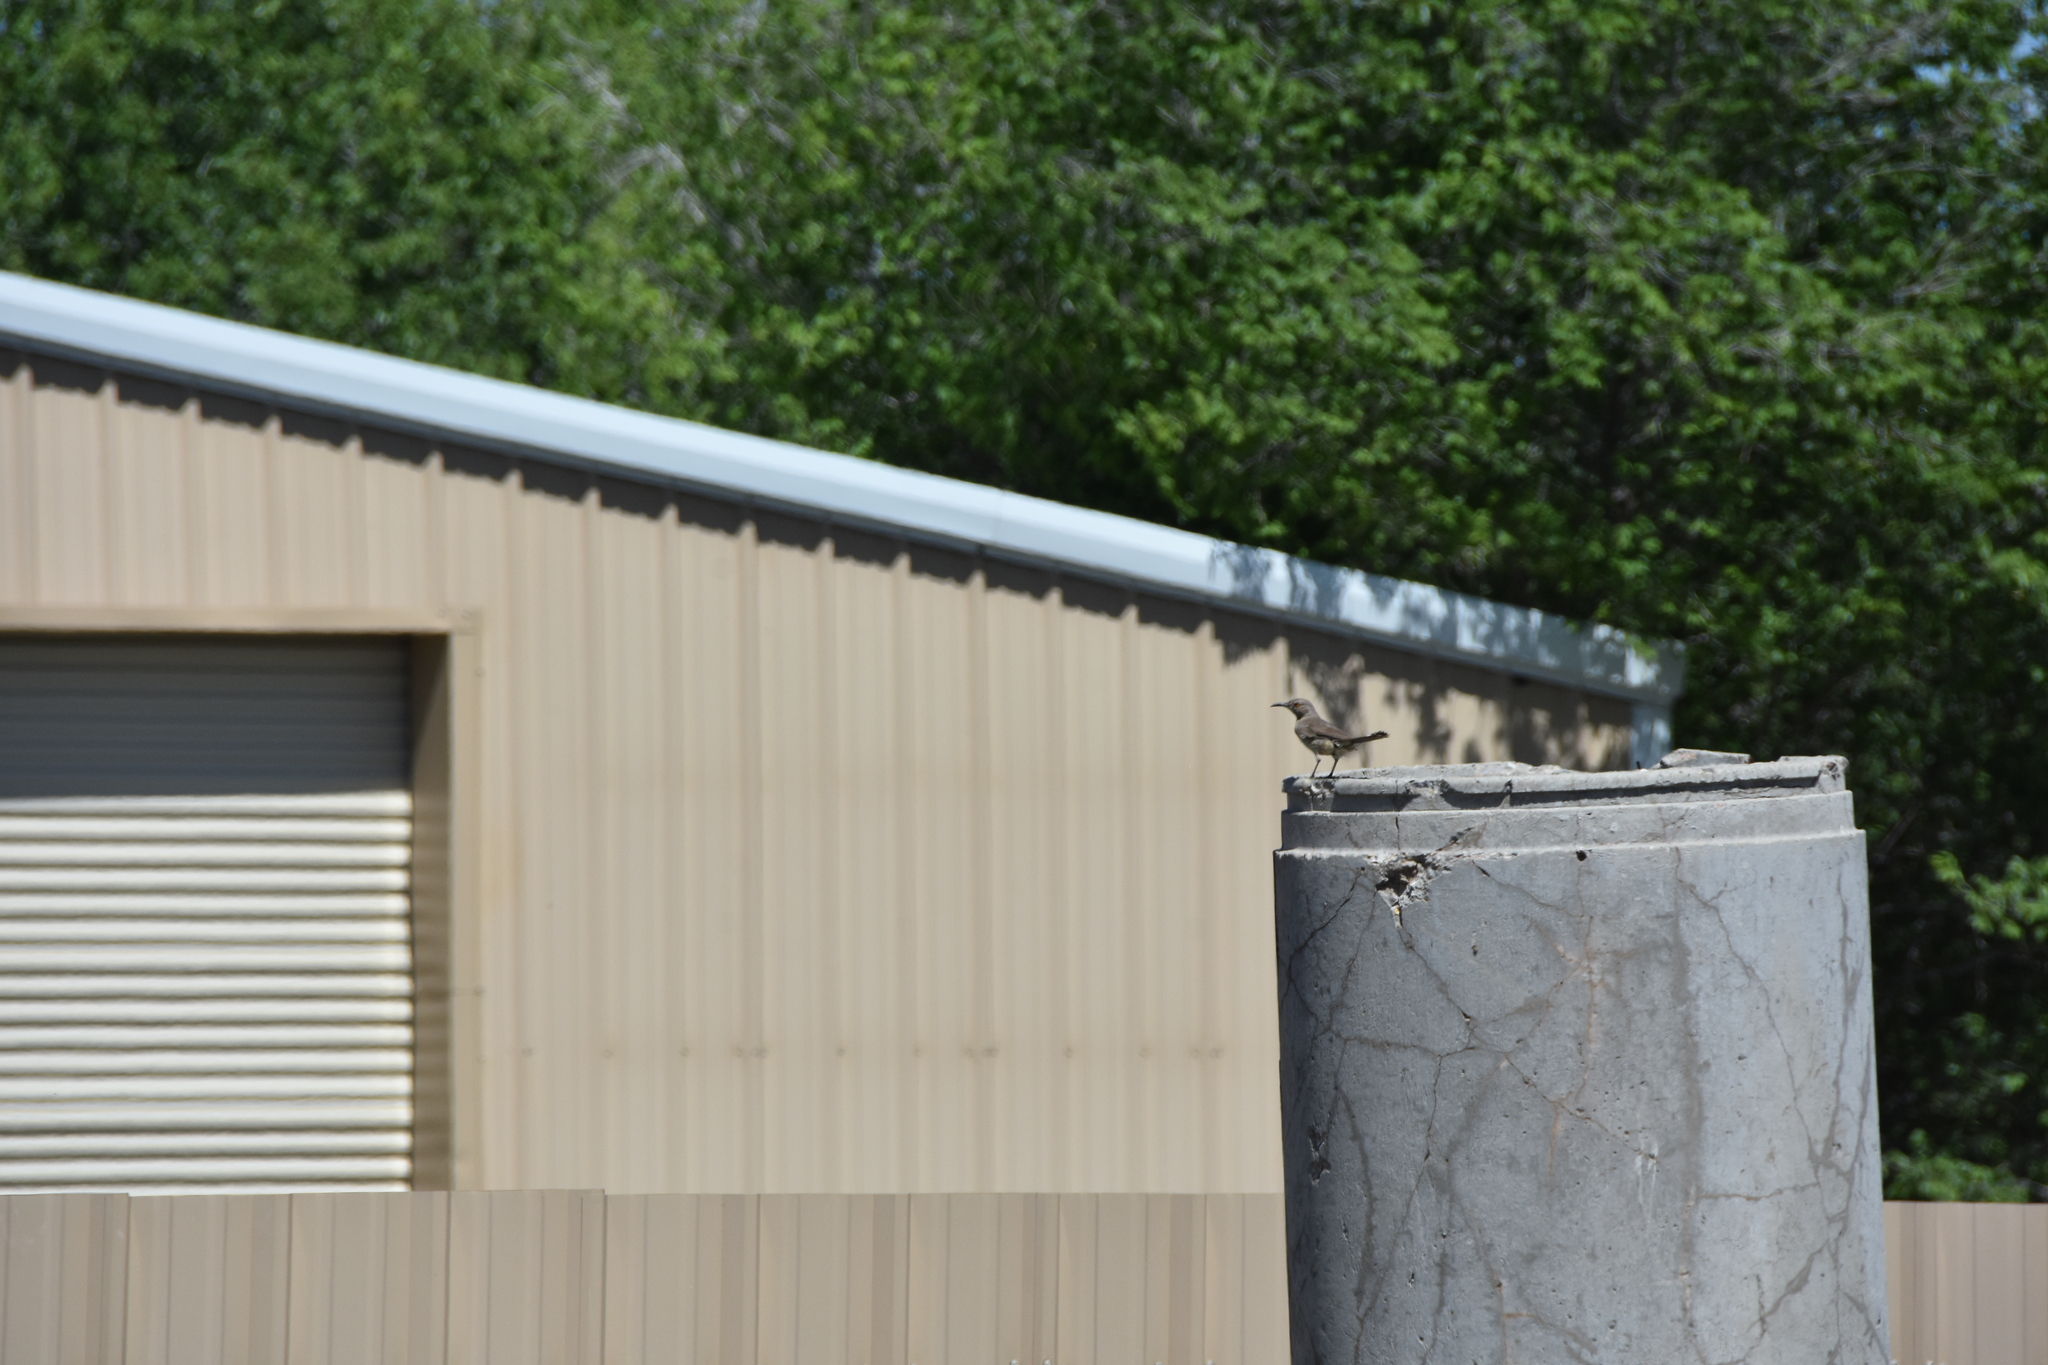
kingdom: Animalia
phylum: Chordata
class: Aves
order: Passeriformes
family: Mimidae
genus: Toxostoma
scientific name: Toxostoma curvirostre
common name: Curve-billed thrasher
